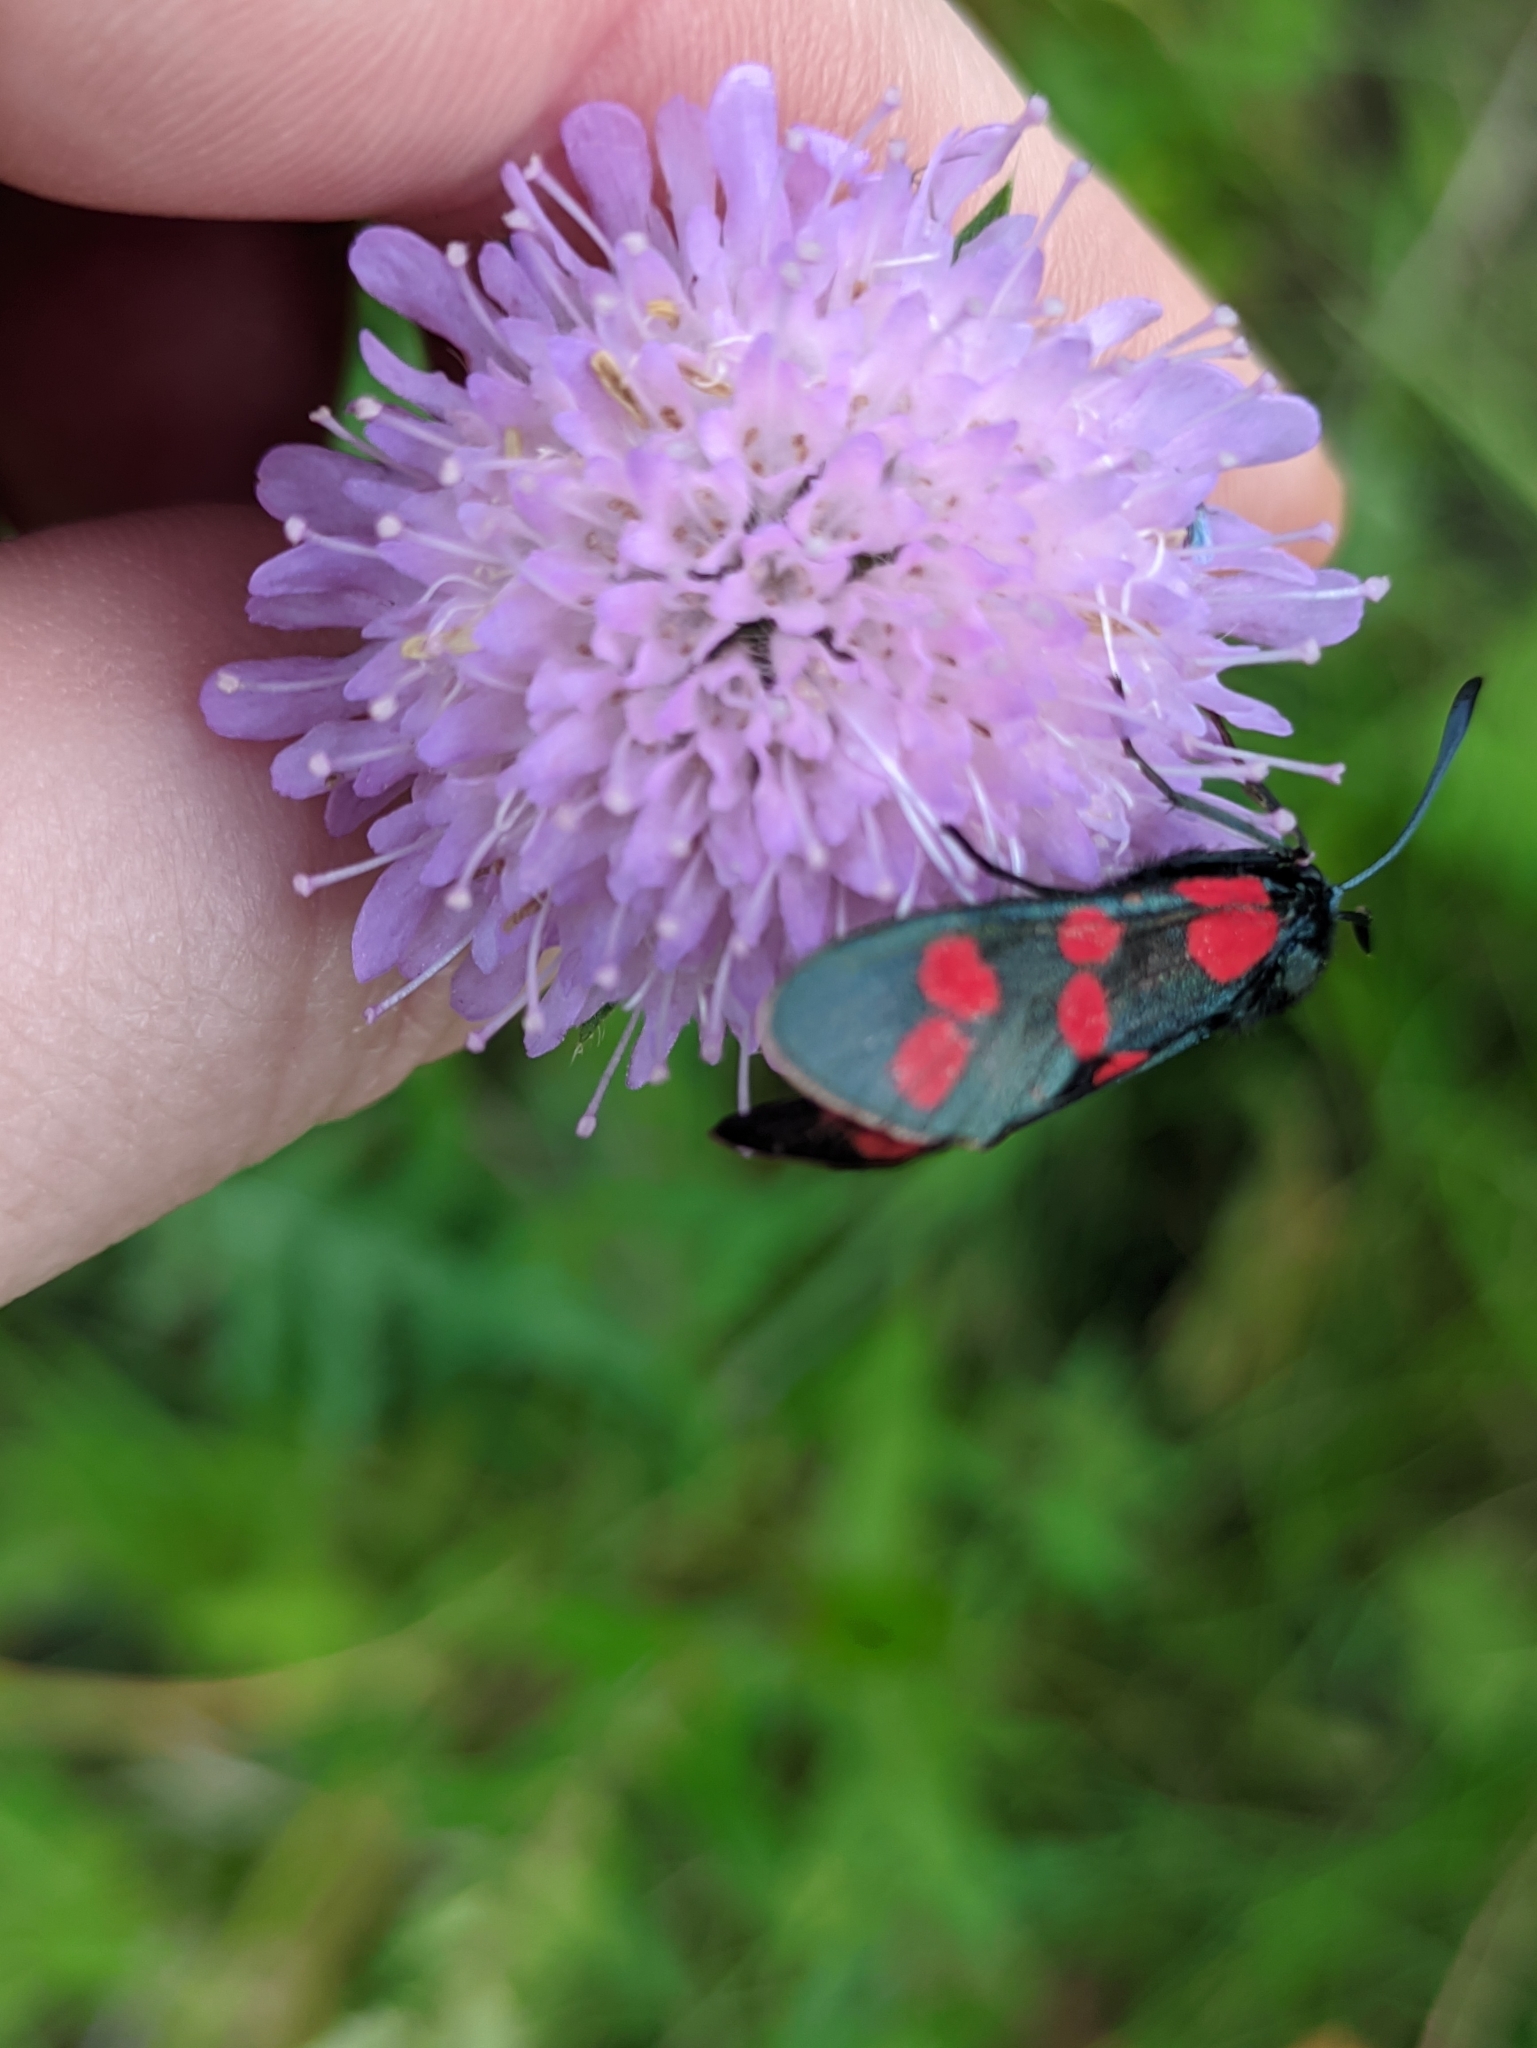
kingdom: Animalia
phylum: Arthropoda
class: Insecta
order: Lepidoptera
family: Zygaenidae
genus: Zygaena
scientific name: Zygaena filipendulae
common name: Six-spot burnet
